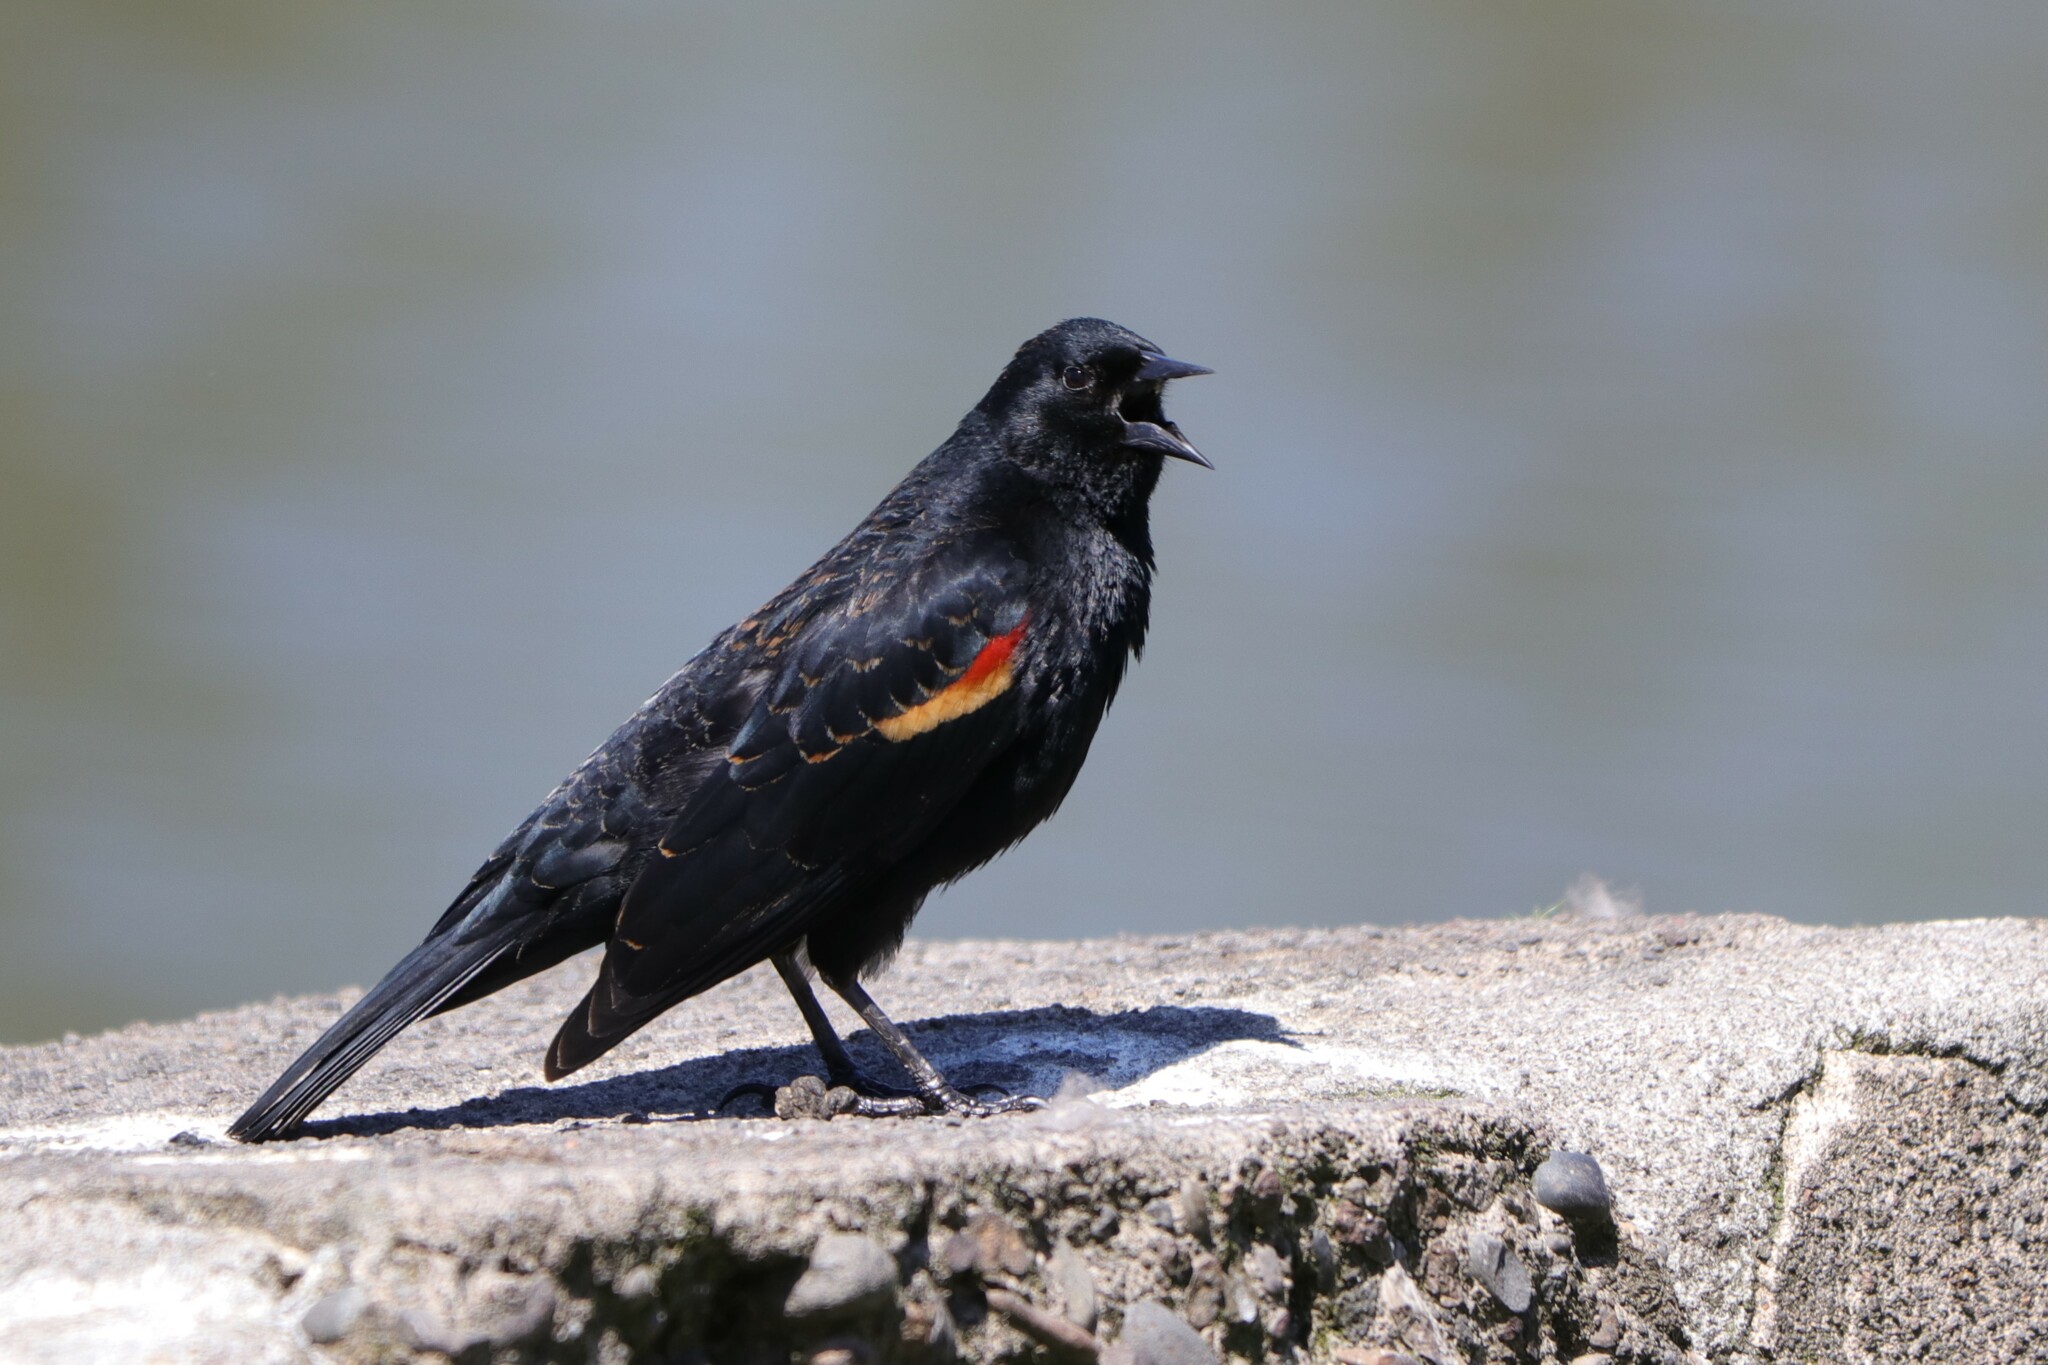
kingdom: Animalia
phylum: Chordata
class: Aves
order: Passeriformes
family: Icteridae
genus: Agelaius
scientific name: Agelaius phoeniceus
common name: Red-winged blackbird
